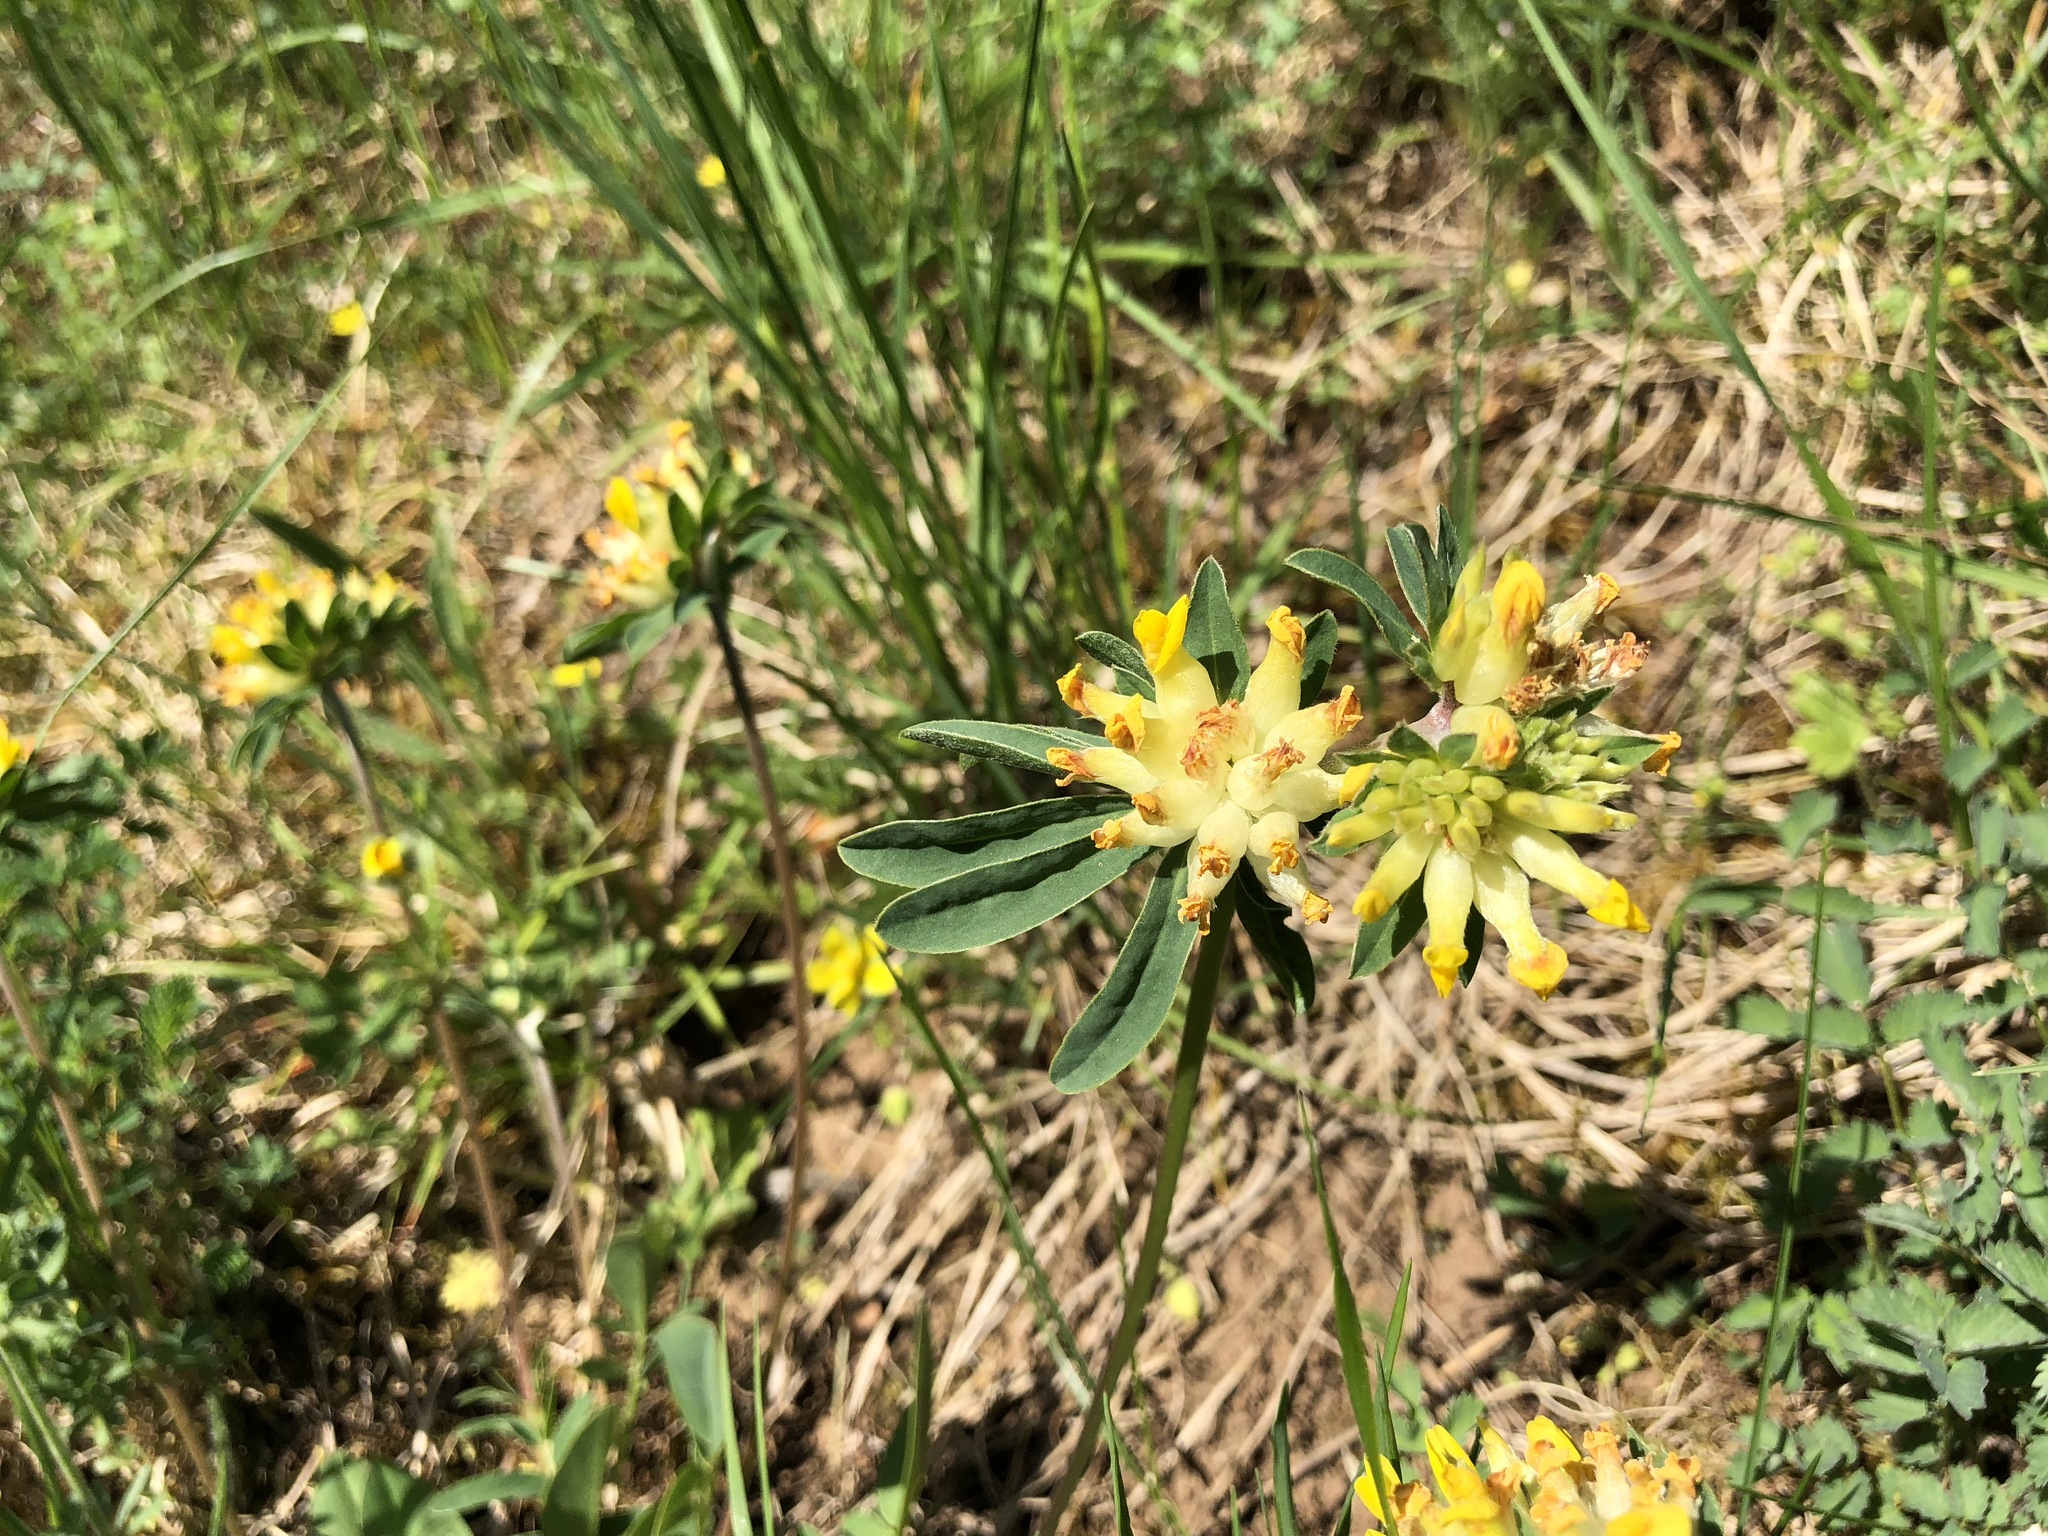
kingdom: Plantae
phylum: Tracheophyta
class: Magnoliopsida
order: Fabales
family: Fabaceae
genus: Anthyllis
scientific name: Anthyllis vulneraria
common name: Kidney vetch
